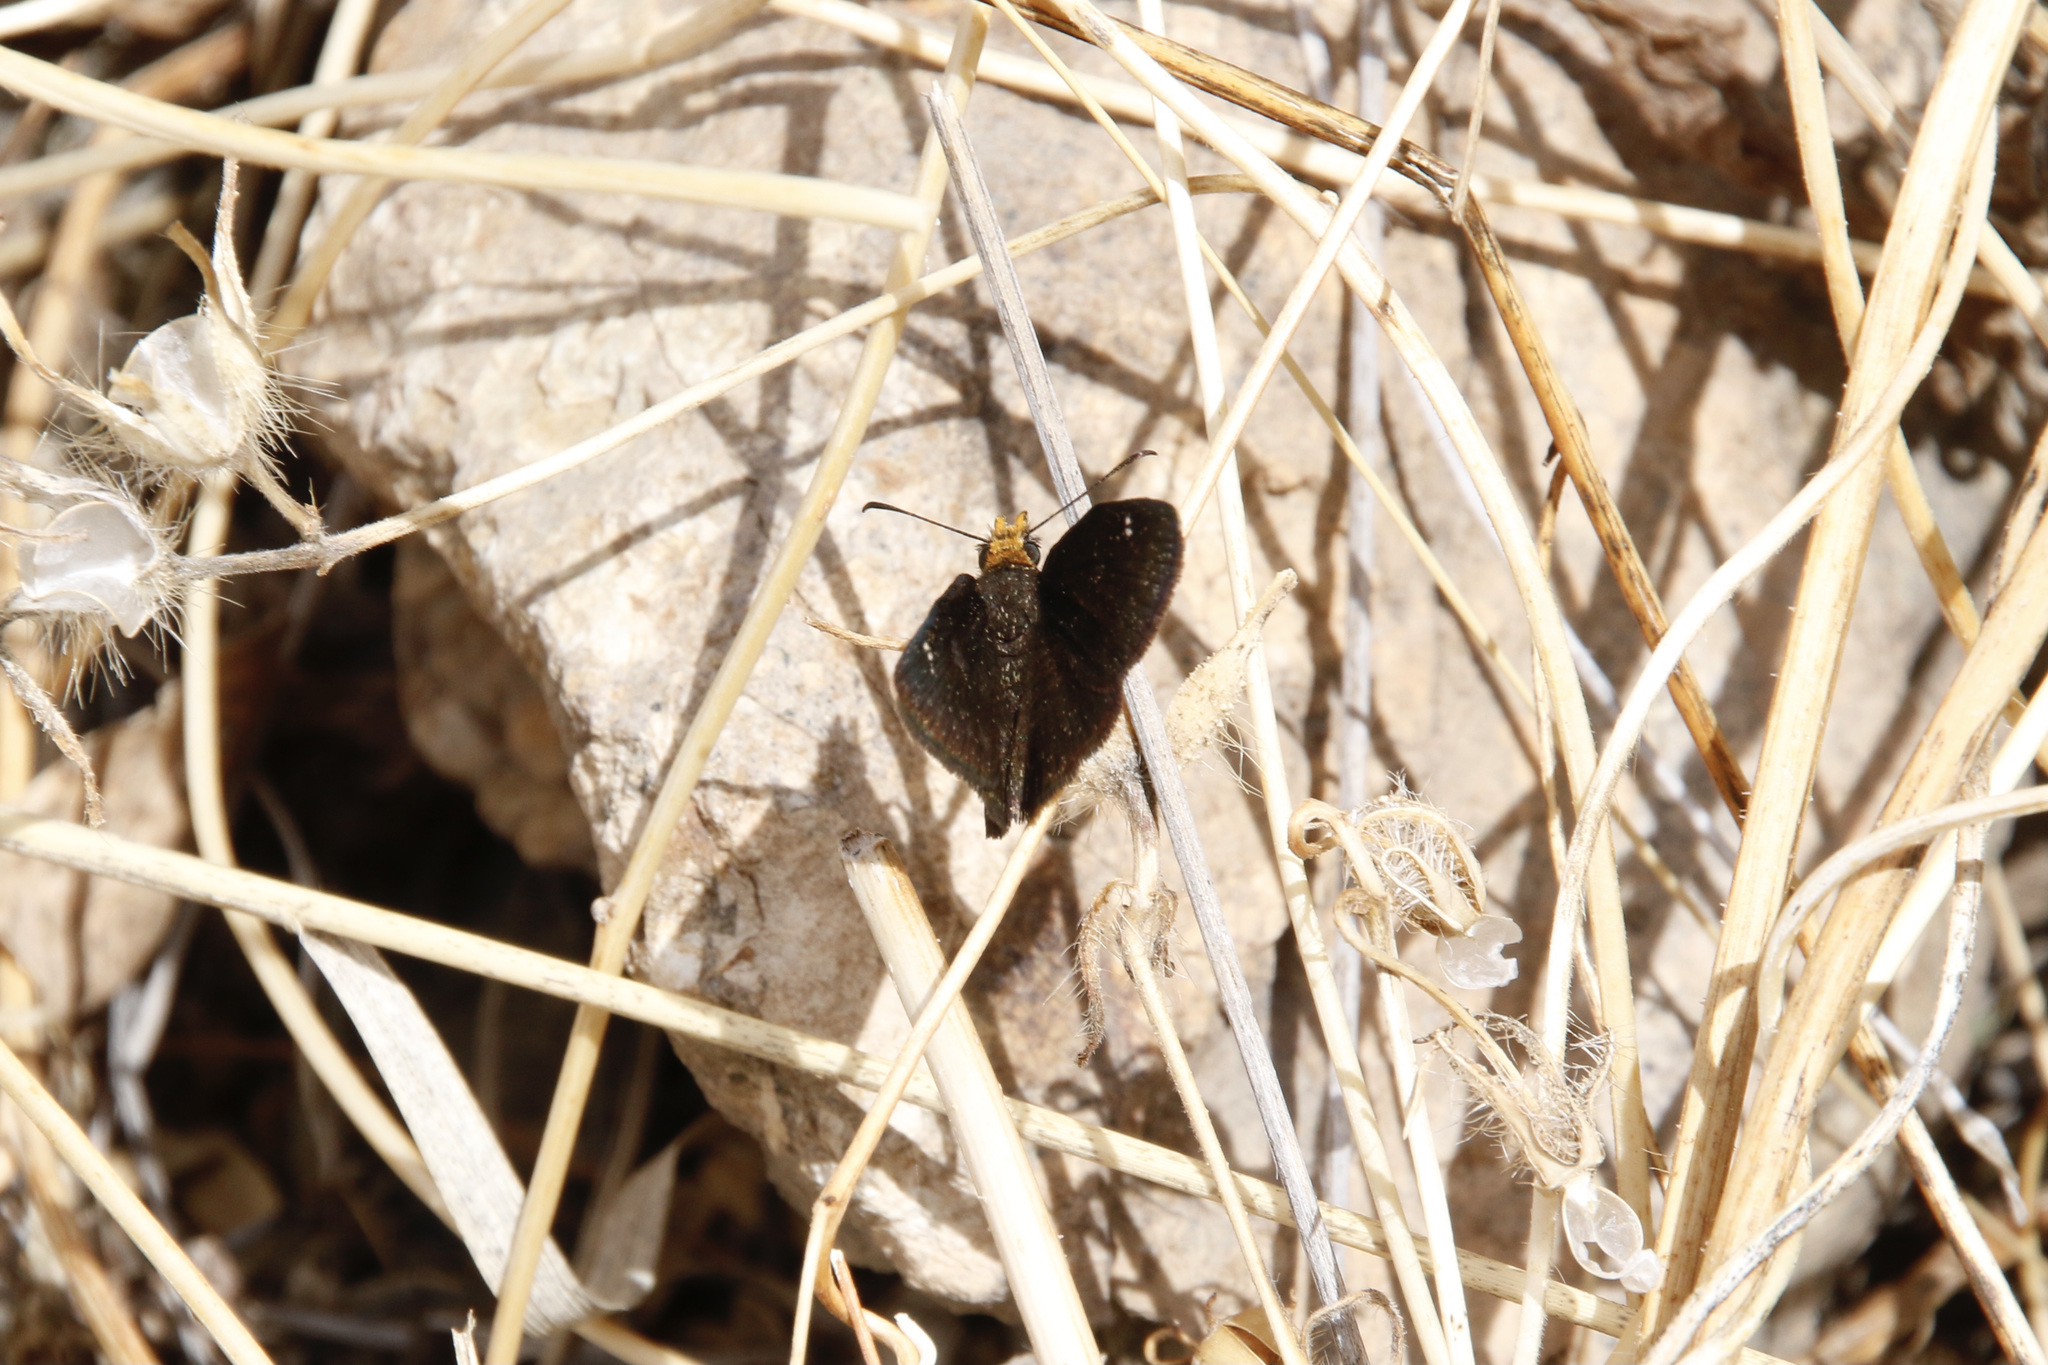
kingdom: Animalia
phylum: Arthropoda
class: Insecta
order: Lepidoptera
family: Hesperiidae
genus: Staphylus
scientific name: Staphylus ceos
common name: Golden-headed scallopwing
